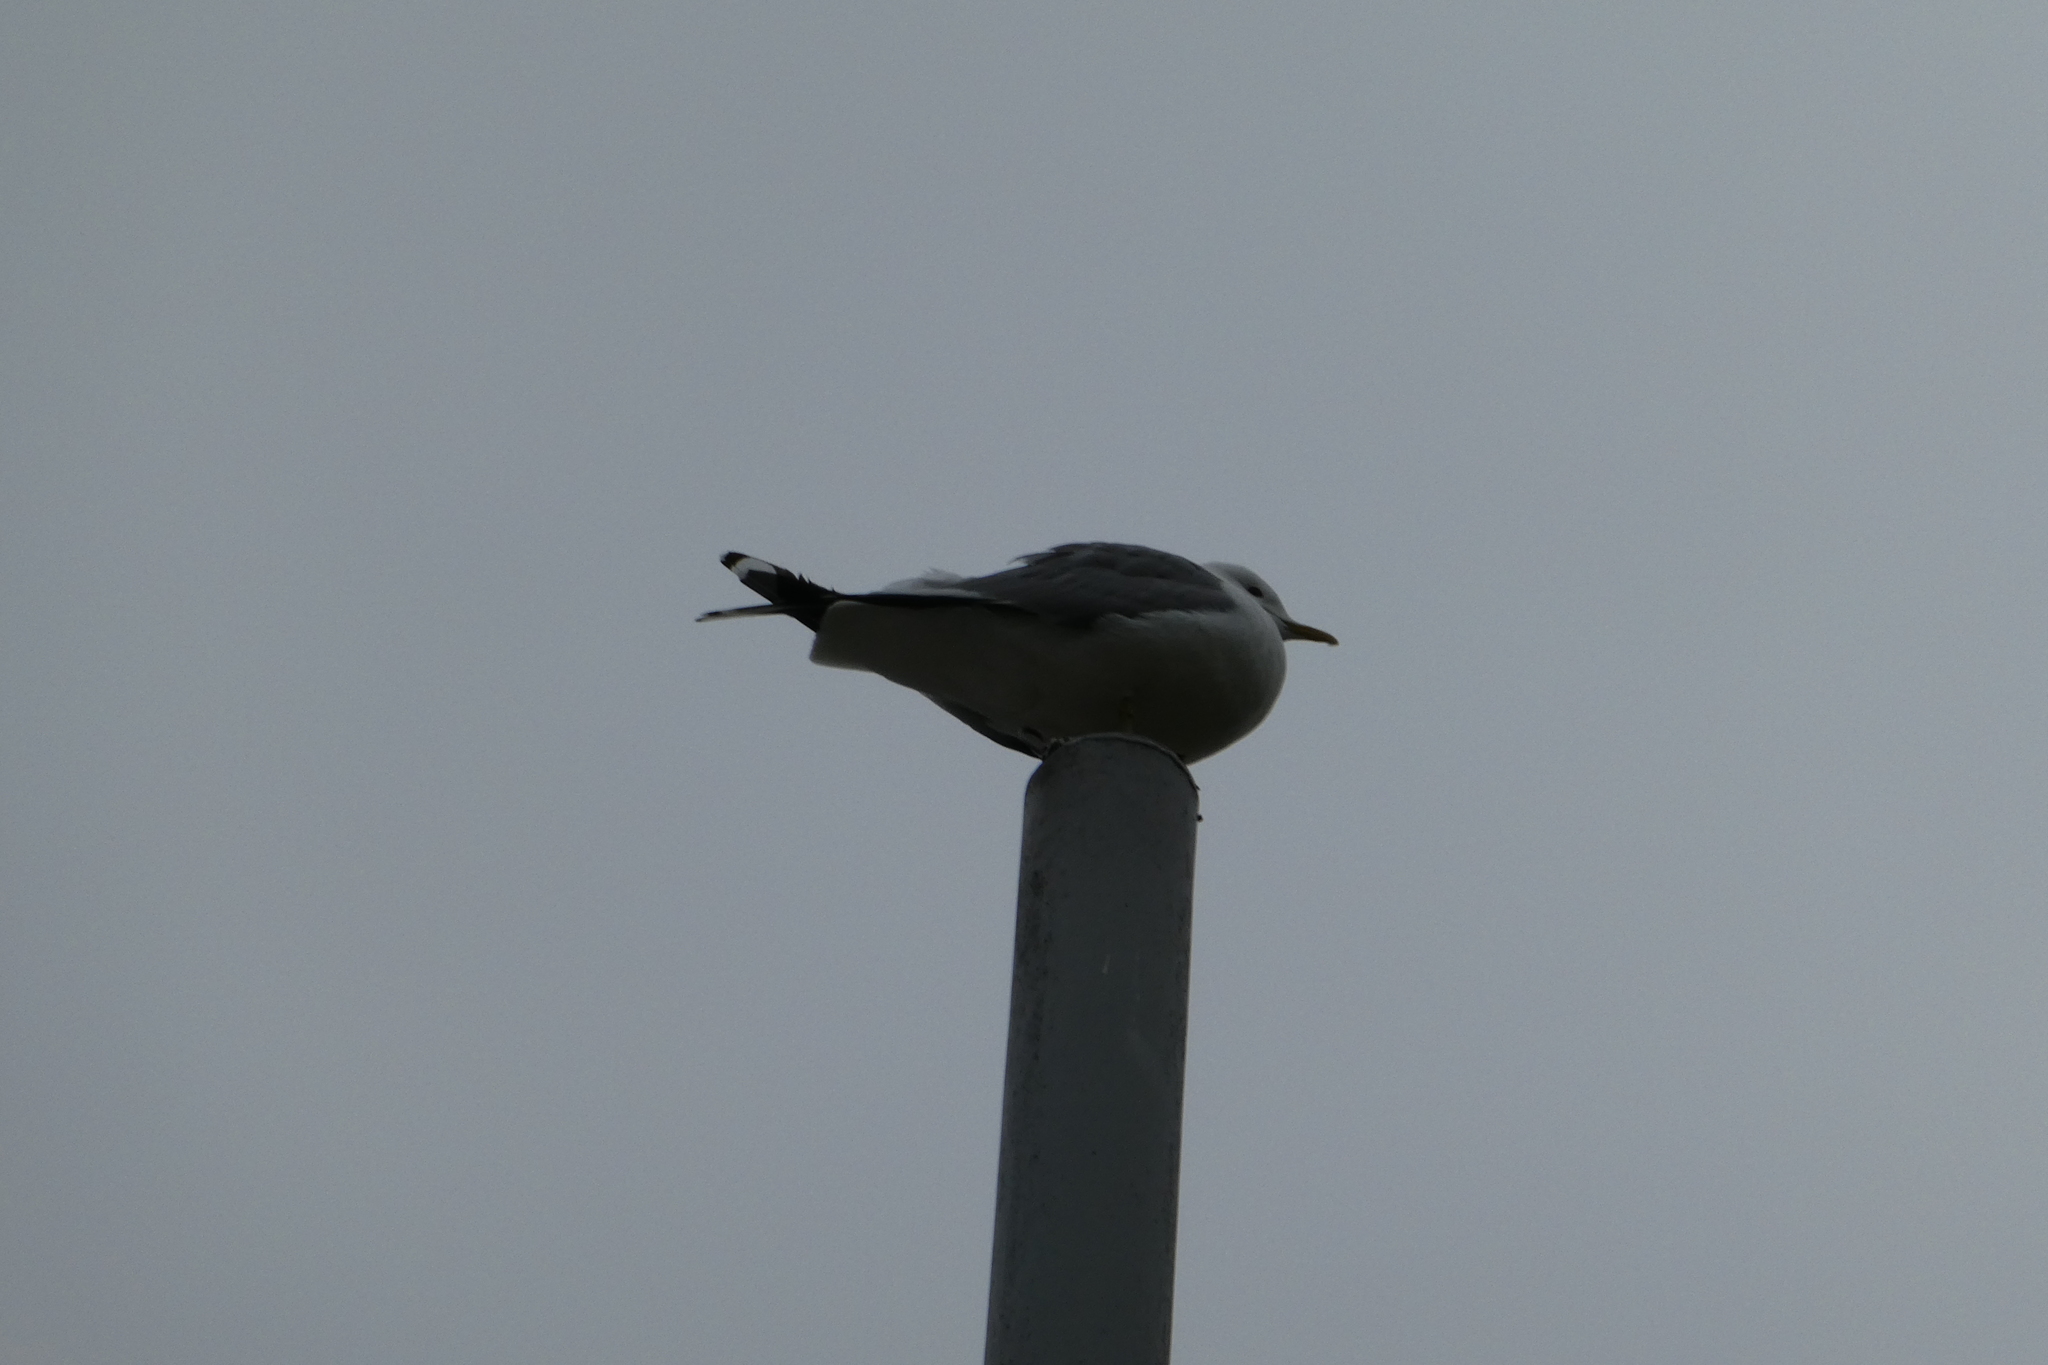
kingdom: Animalia
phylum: Chordata
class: Aves
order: Charadriiformes
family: Laridae
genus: Larus
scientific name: Larus canus
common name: Mew gull
